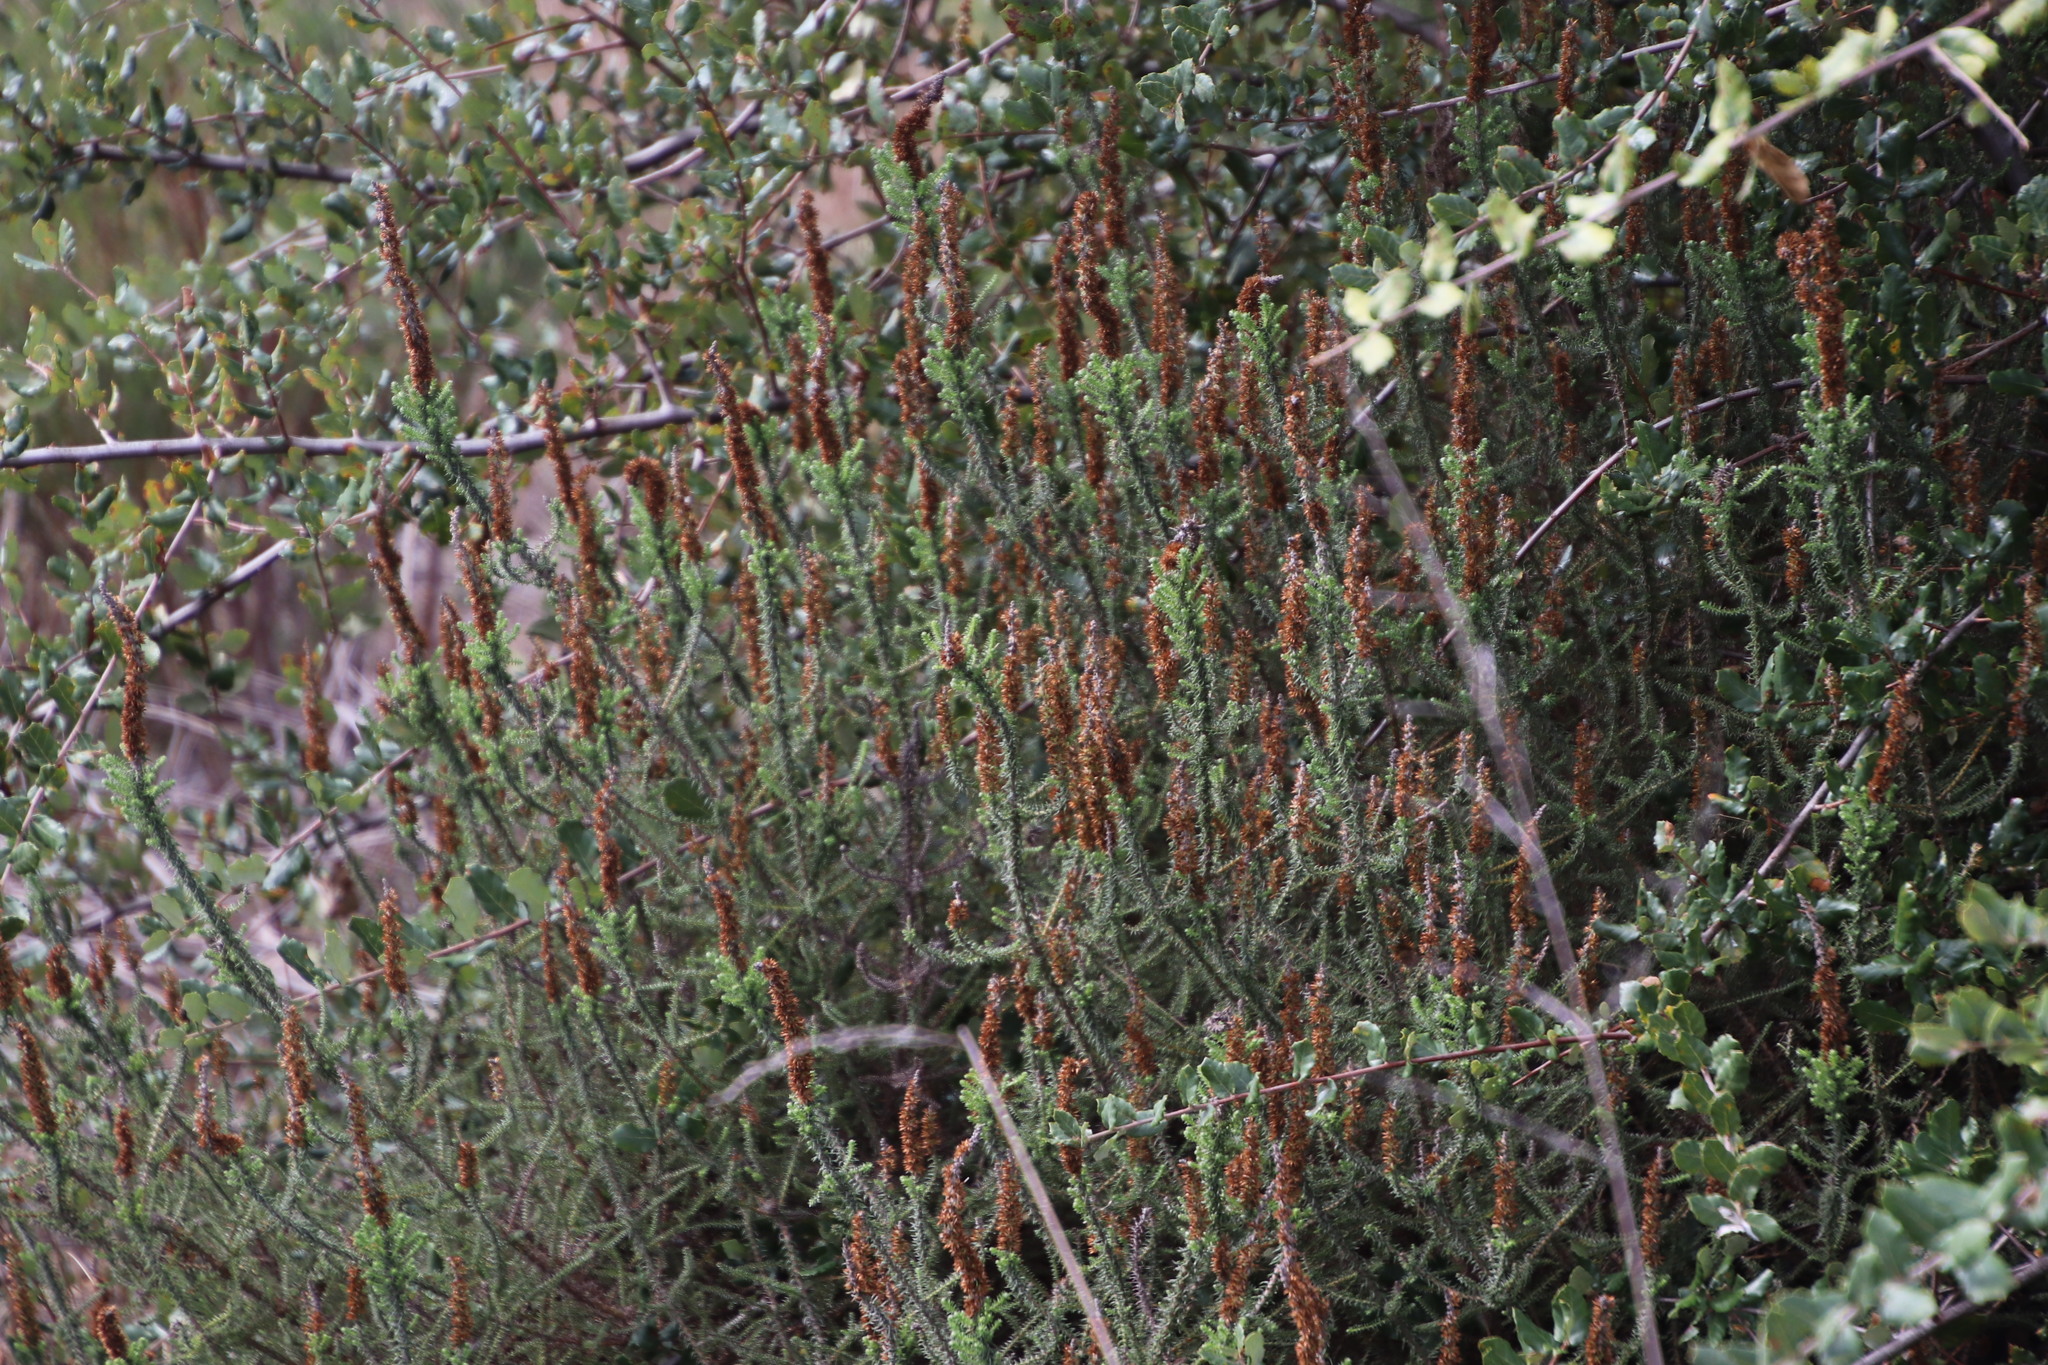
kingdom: Plantae
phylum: Tracheophyta
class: Magnoliopsida
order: Asterales
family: Asteraceae
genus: Seriphium
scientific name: Seriphium cinereum
